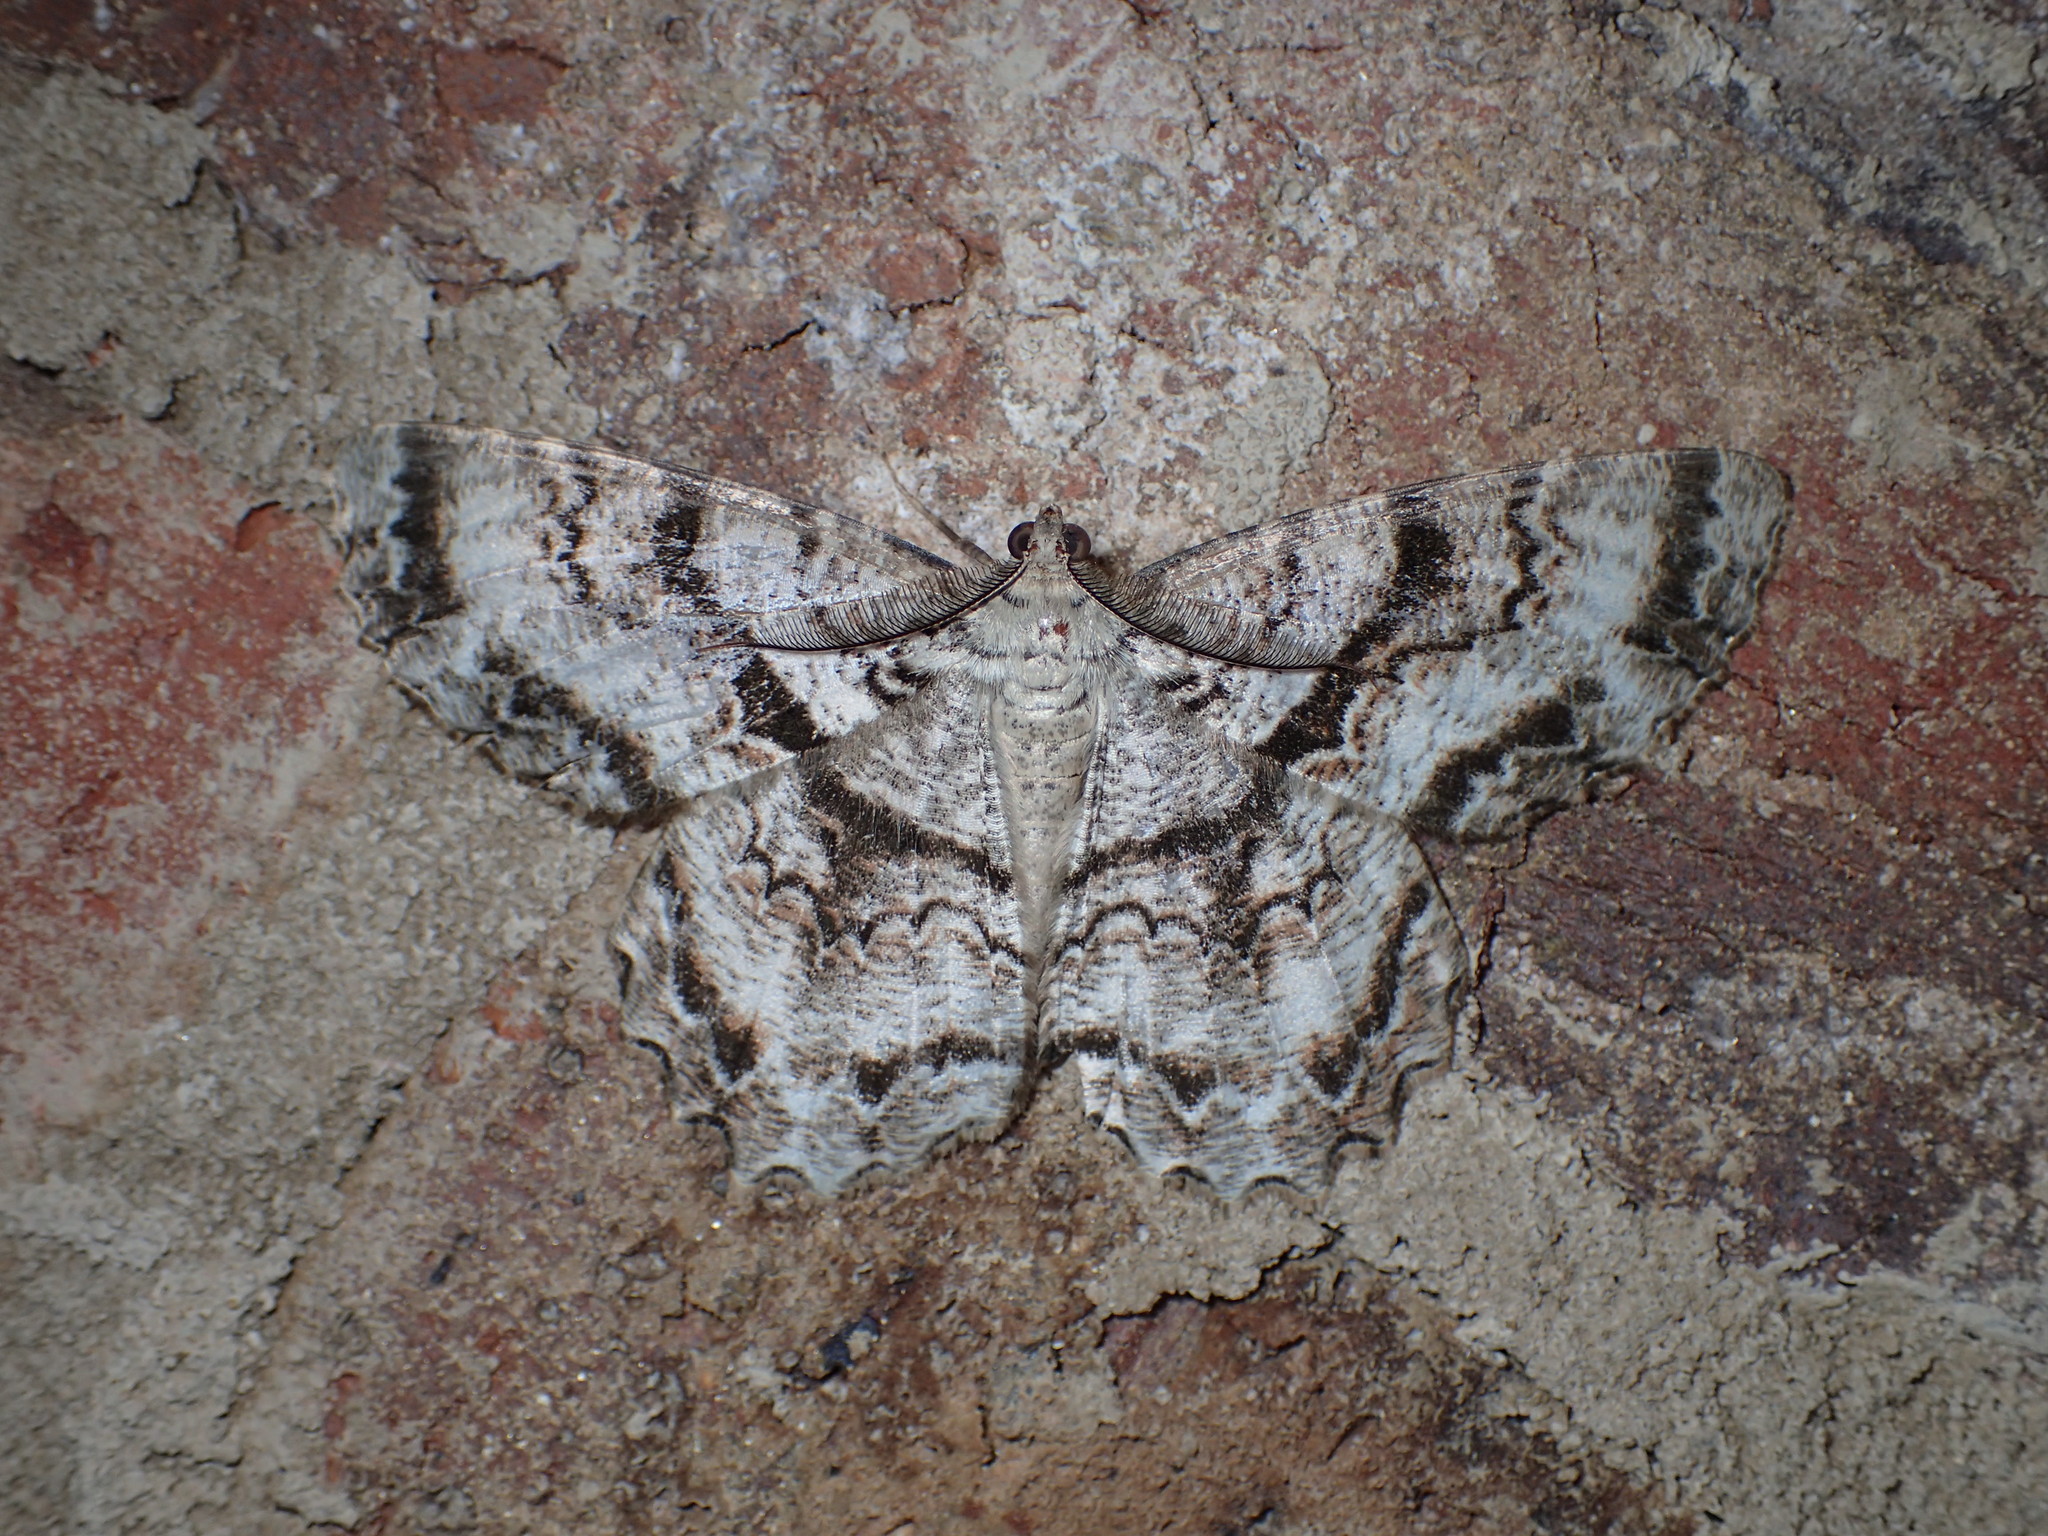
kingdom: Animalia
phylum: Arthropoda
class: Insecta
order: Lepidoptera
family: Geometridae
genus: Epimecis
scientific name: Epimecis hortaria
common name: Tulip-tree beauty
